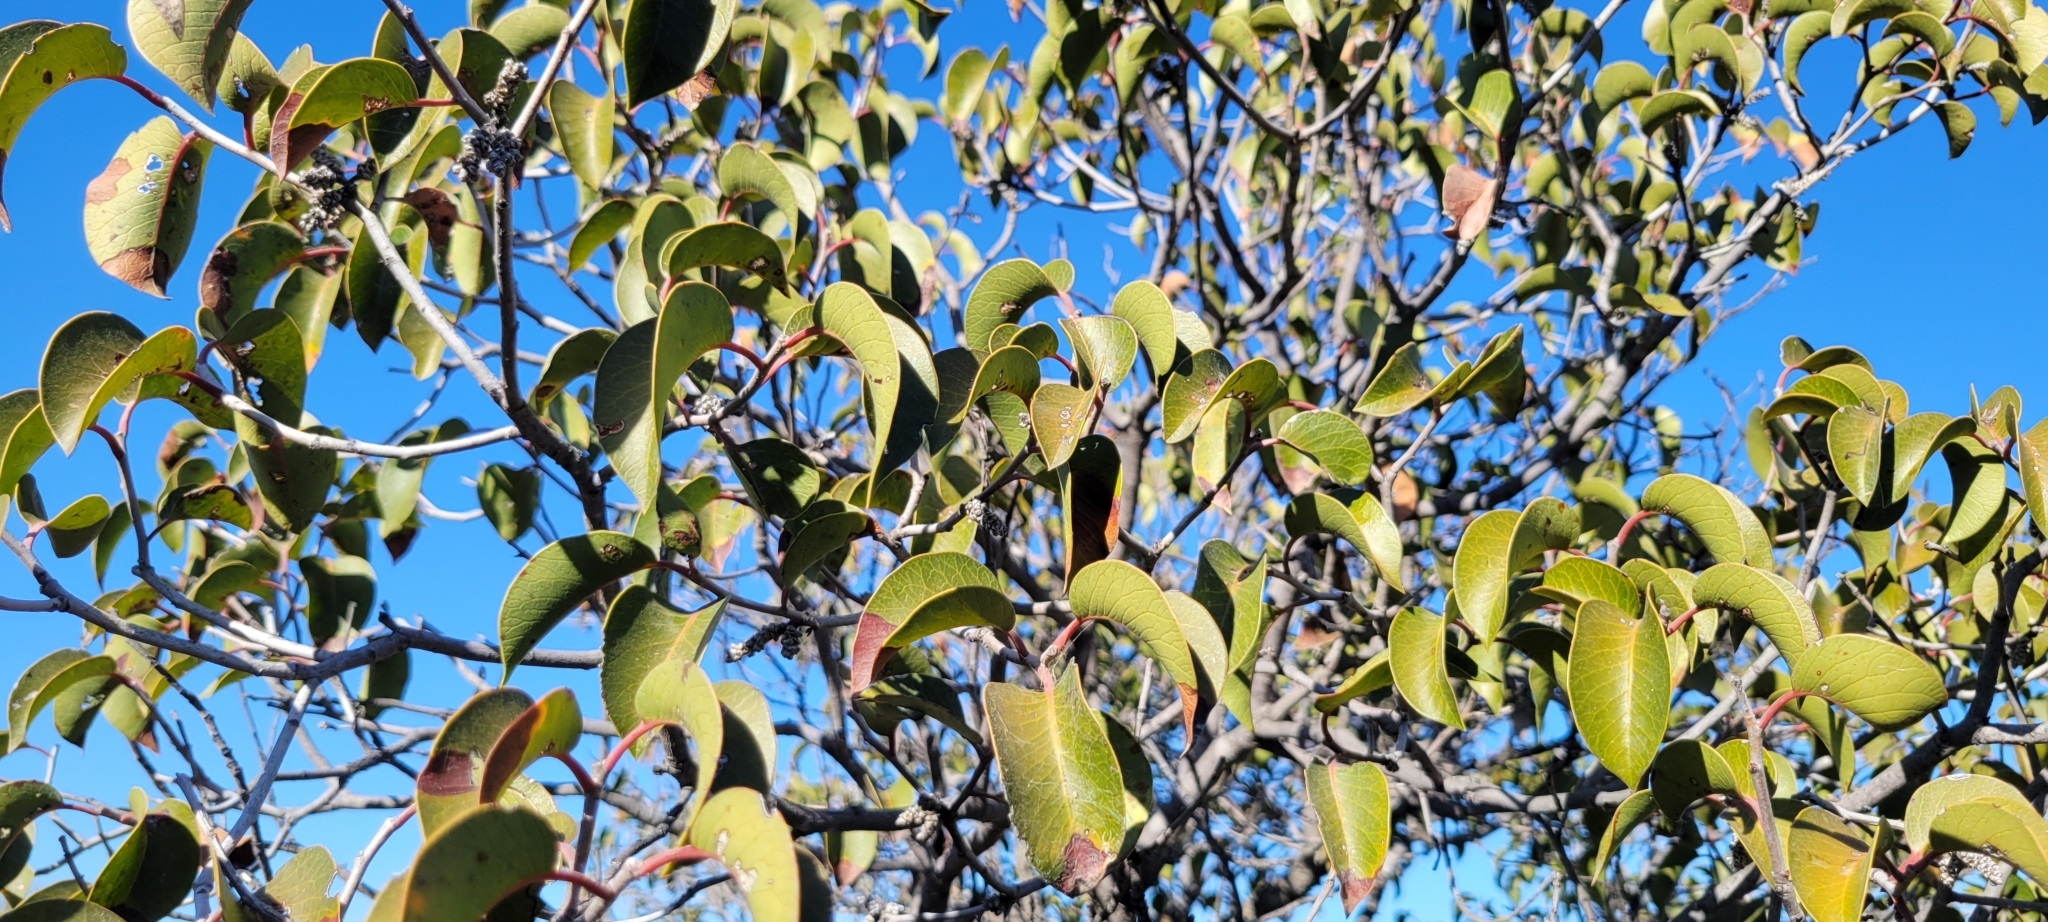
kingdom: Plantae
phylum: Tracheophyta
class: Magnoliopsida
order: Sapindales
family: Anacardiaceae
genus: Rhus
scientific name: Rhus ovata
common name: Sugar sumac
